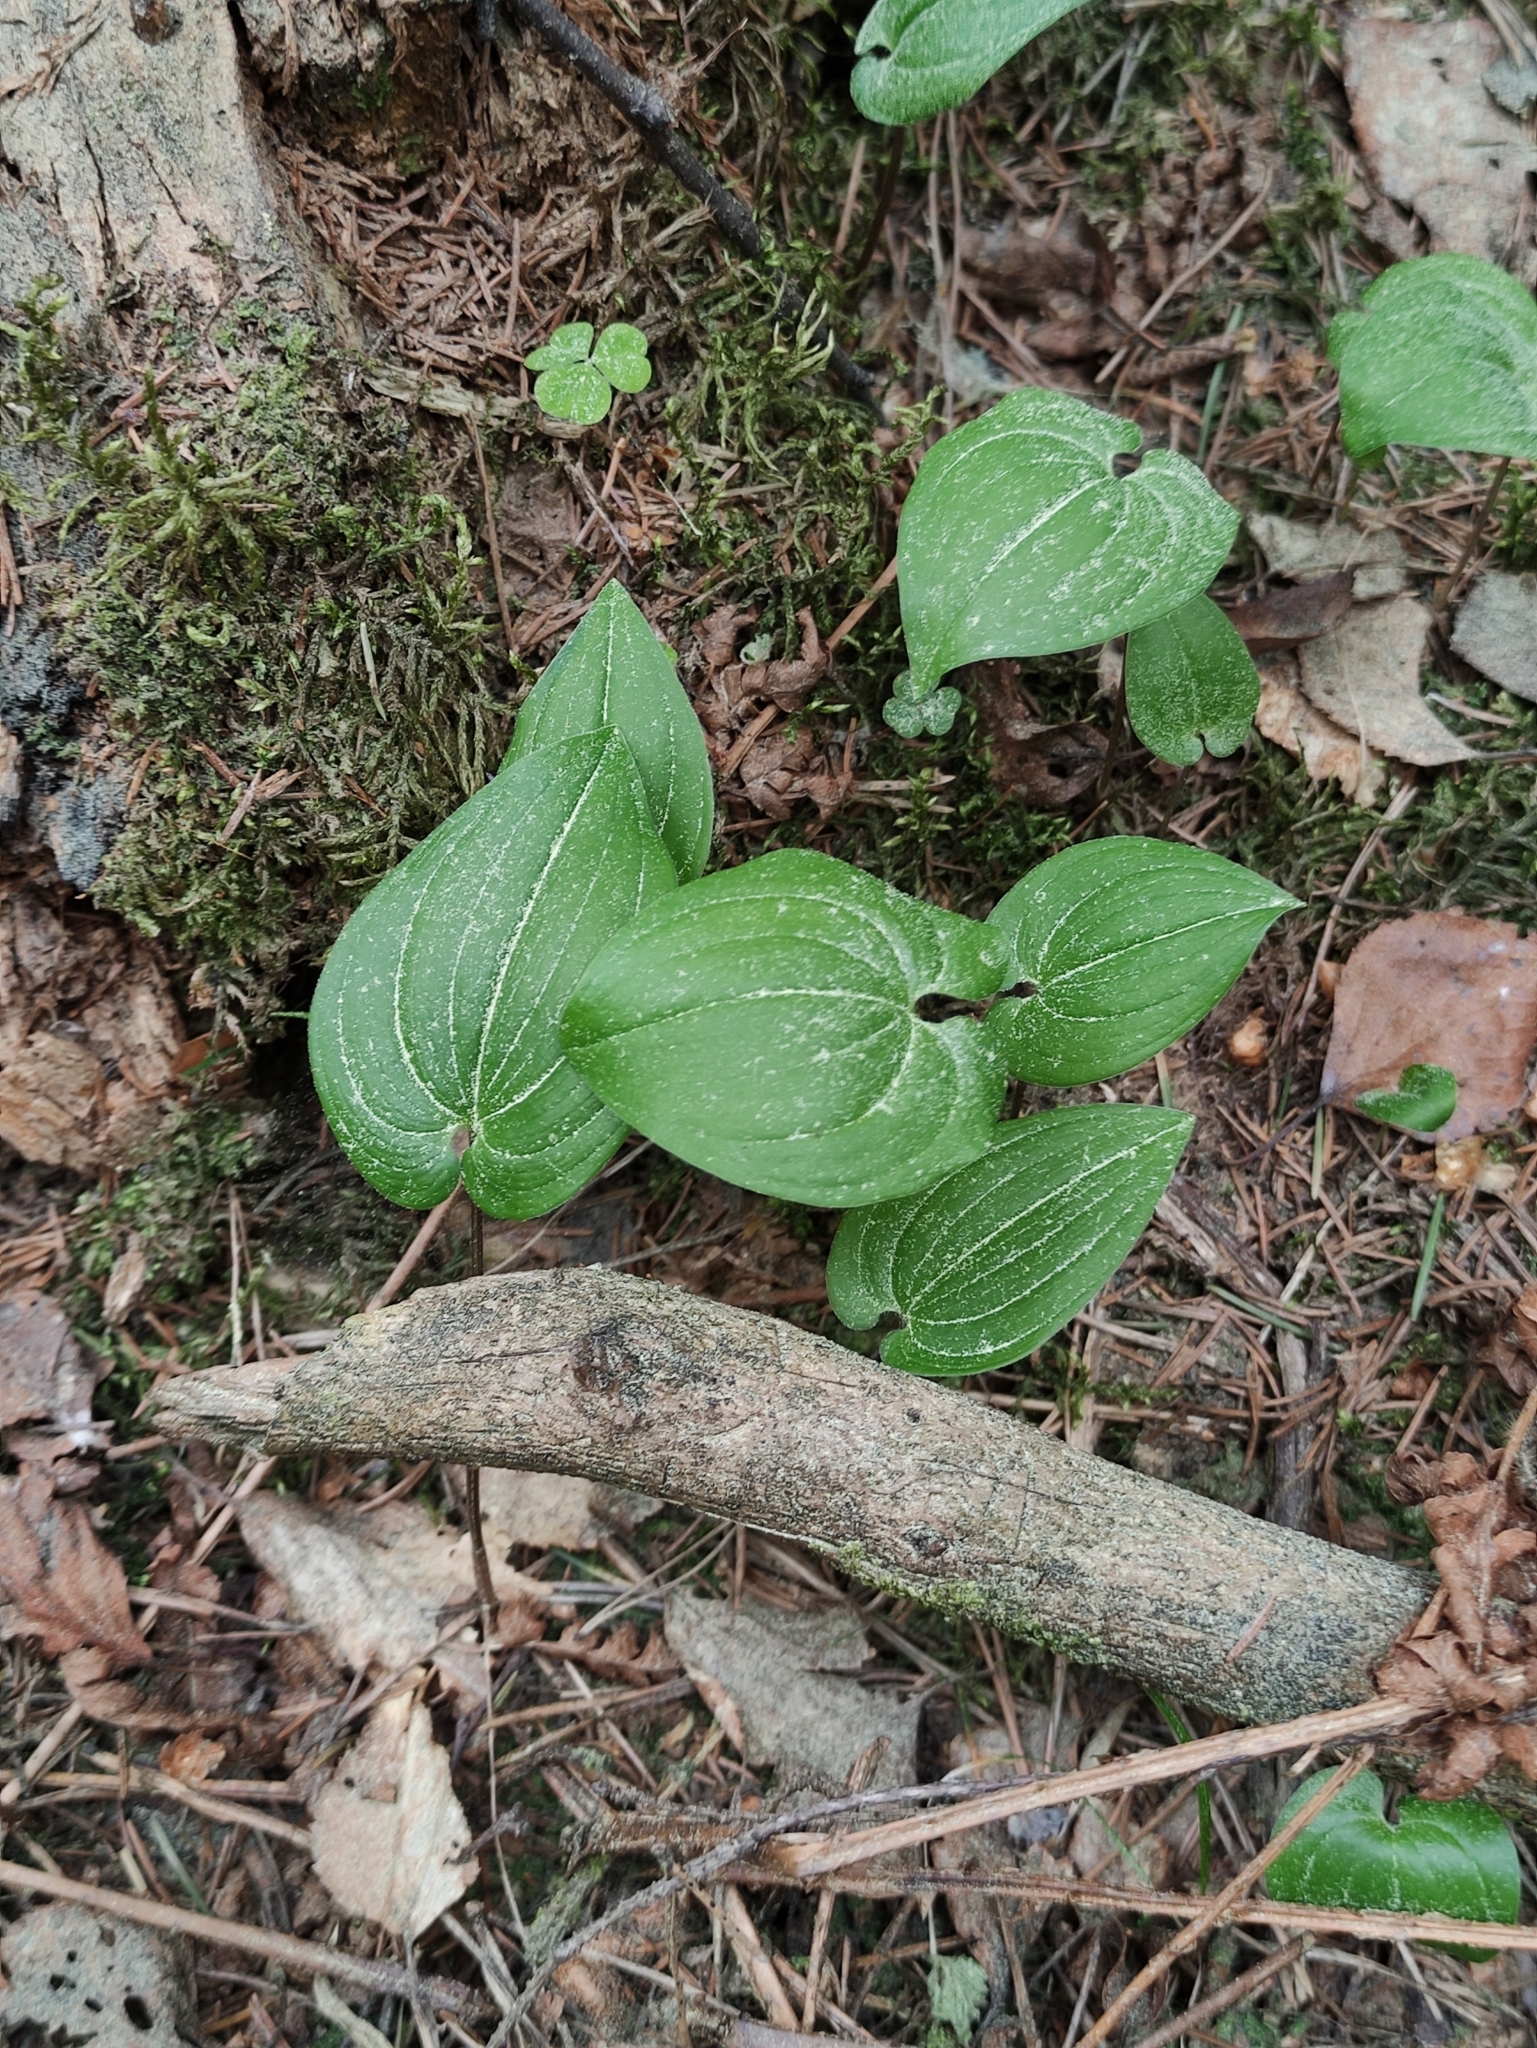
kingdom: Plantae
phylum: Tracheophyta
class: Liliopsida
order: Asparagales
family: Asparagaceae
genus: Maianthemum
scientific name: Maianthemum bifolium
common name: May lily
